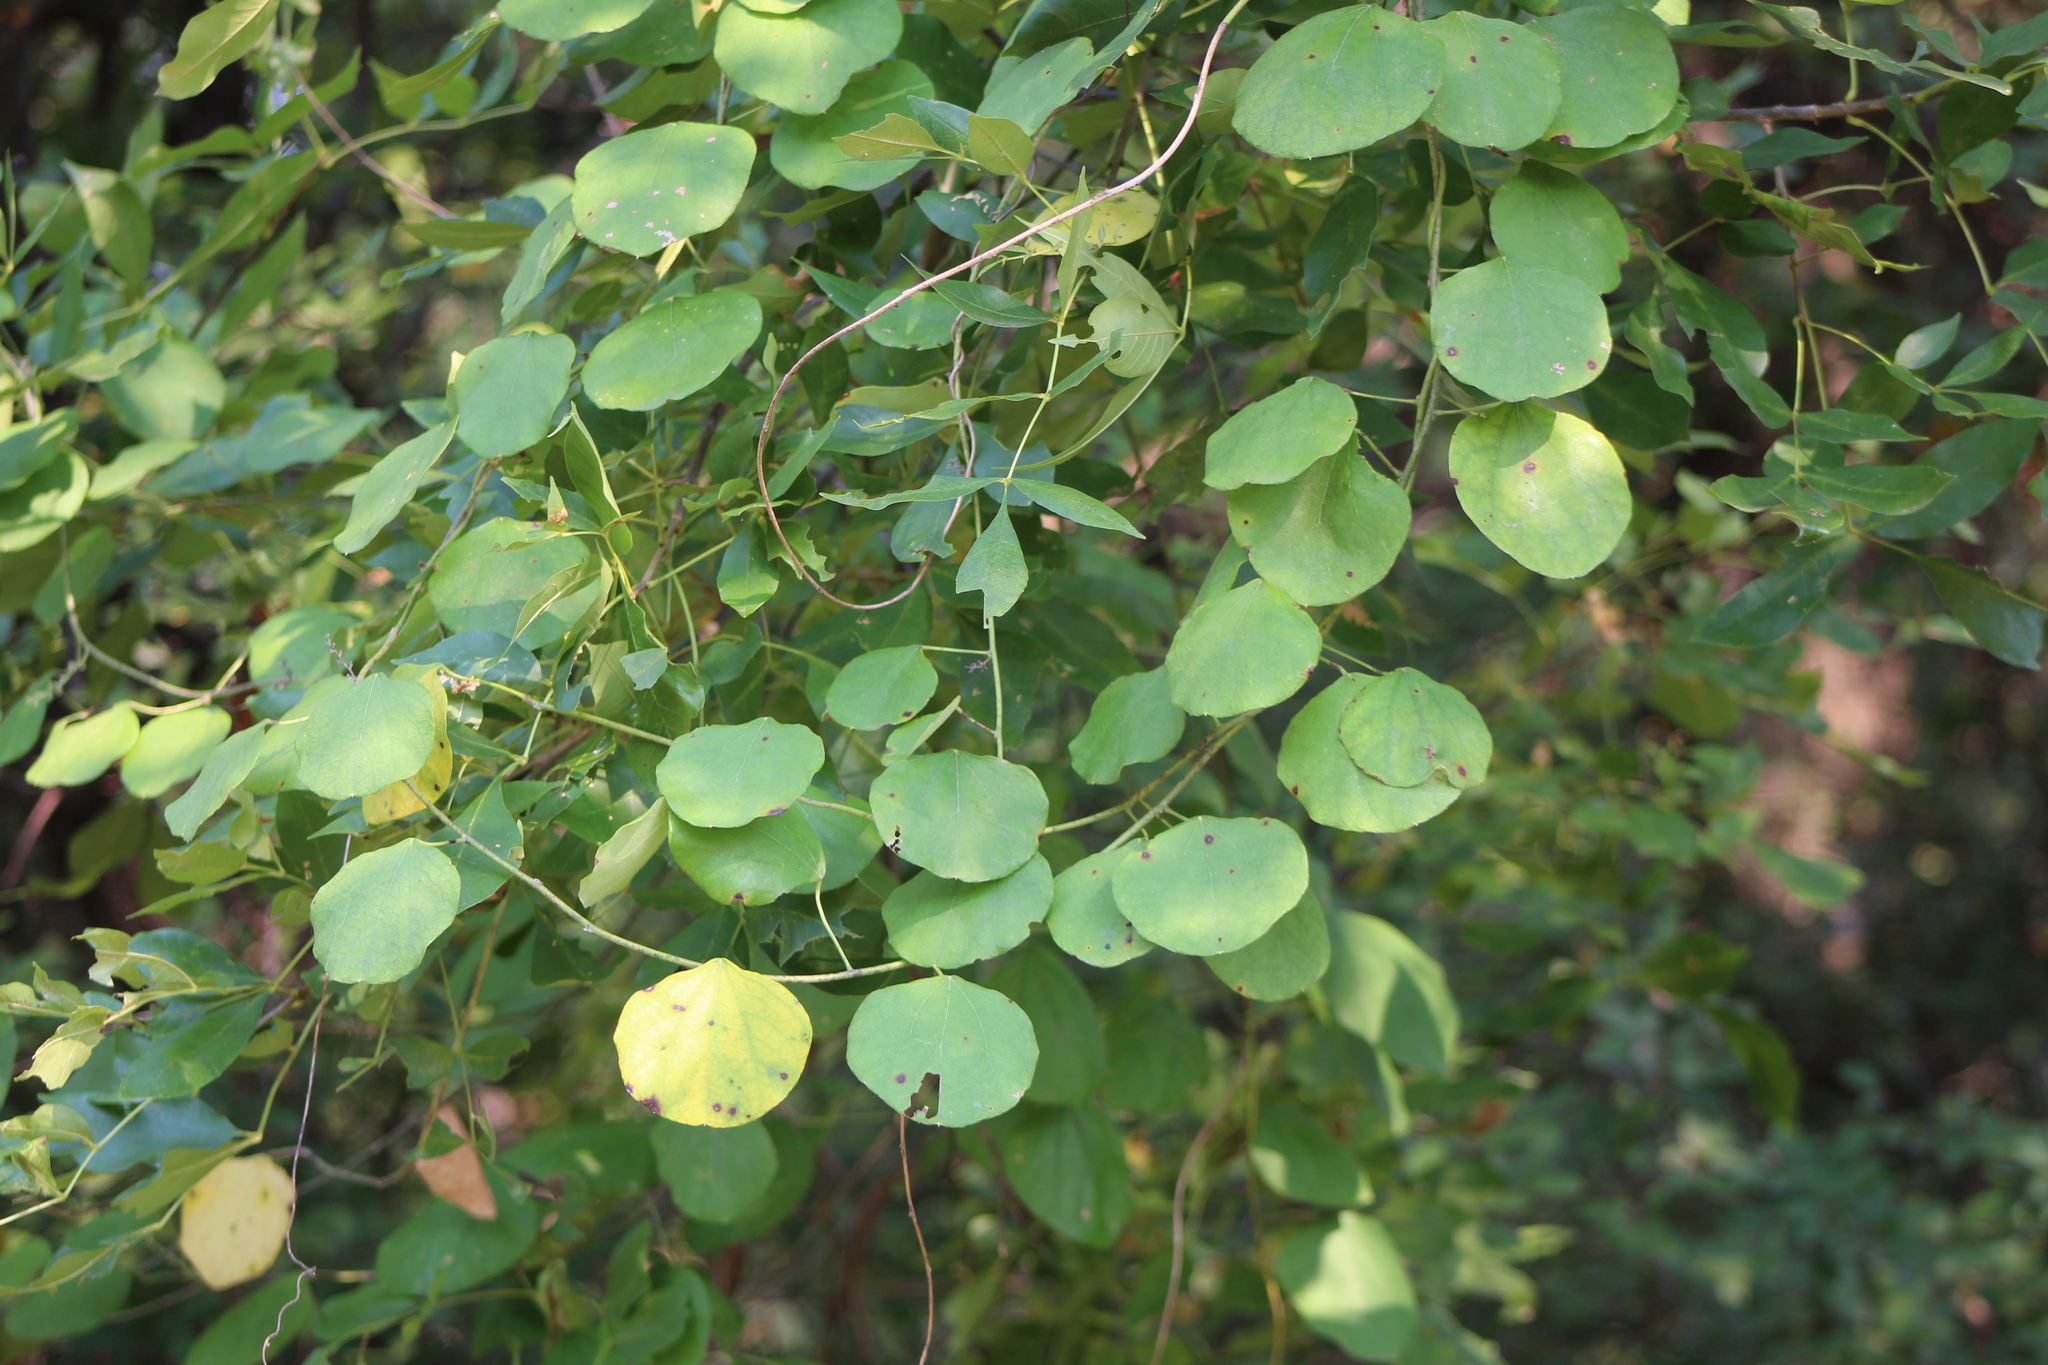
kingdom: Plantae
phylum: Tracheophyta
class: Magnoliopsida
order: Ranunculales
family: Menispermaceae
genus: Cocculus
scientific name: Cocculus carolinus
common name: Carolina moonseed
